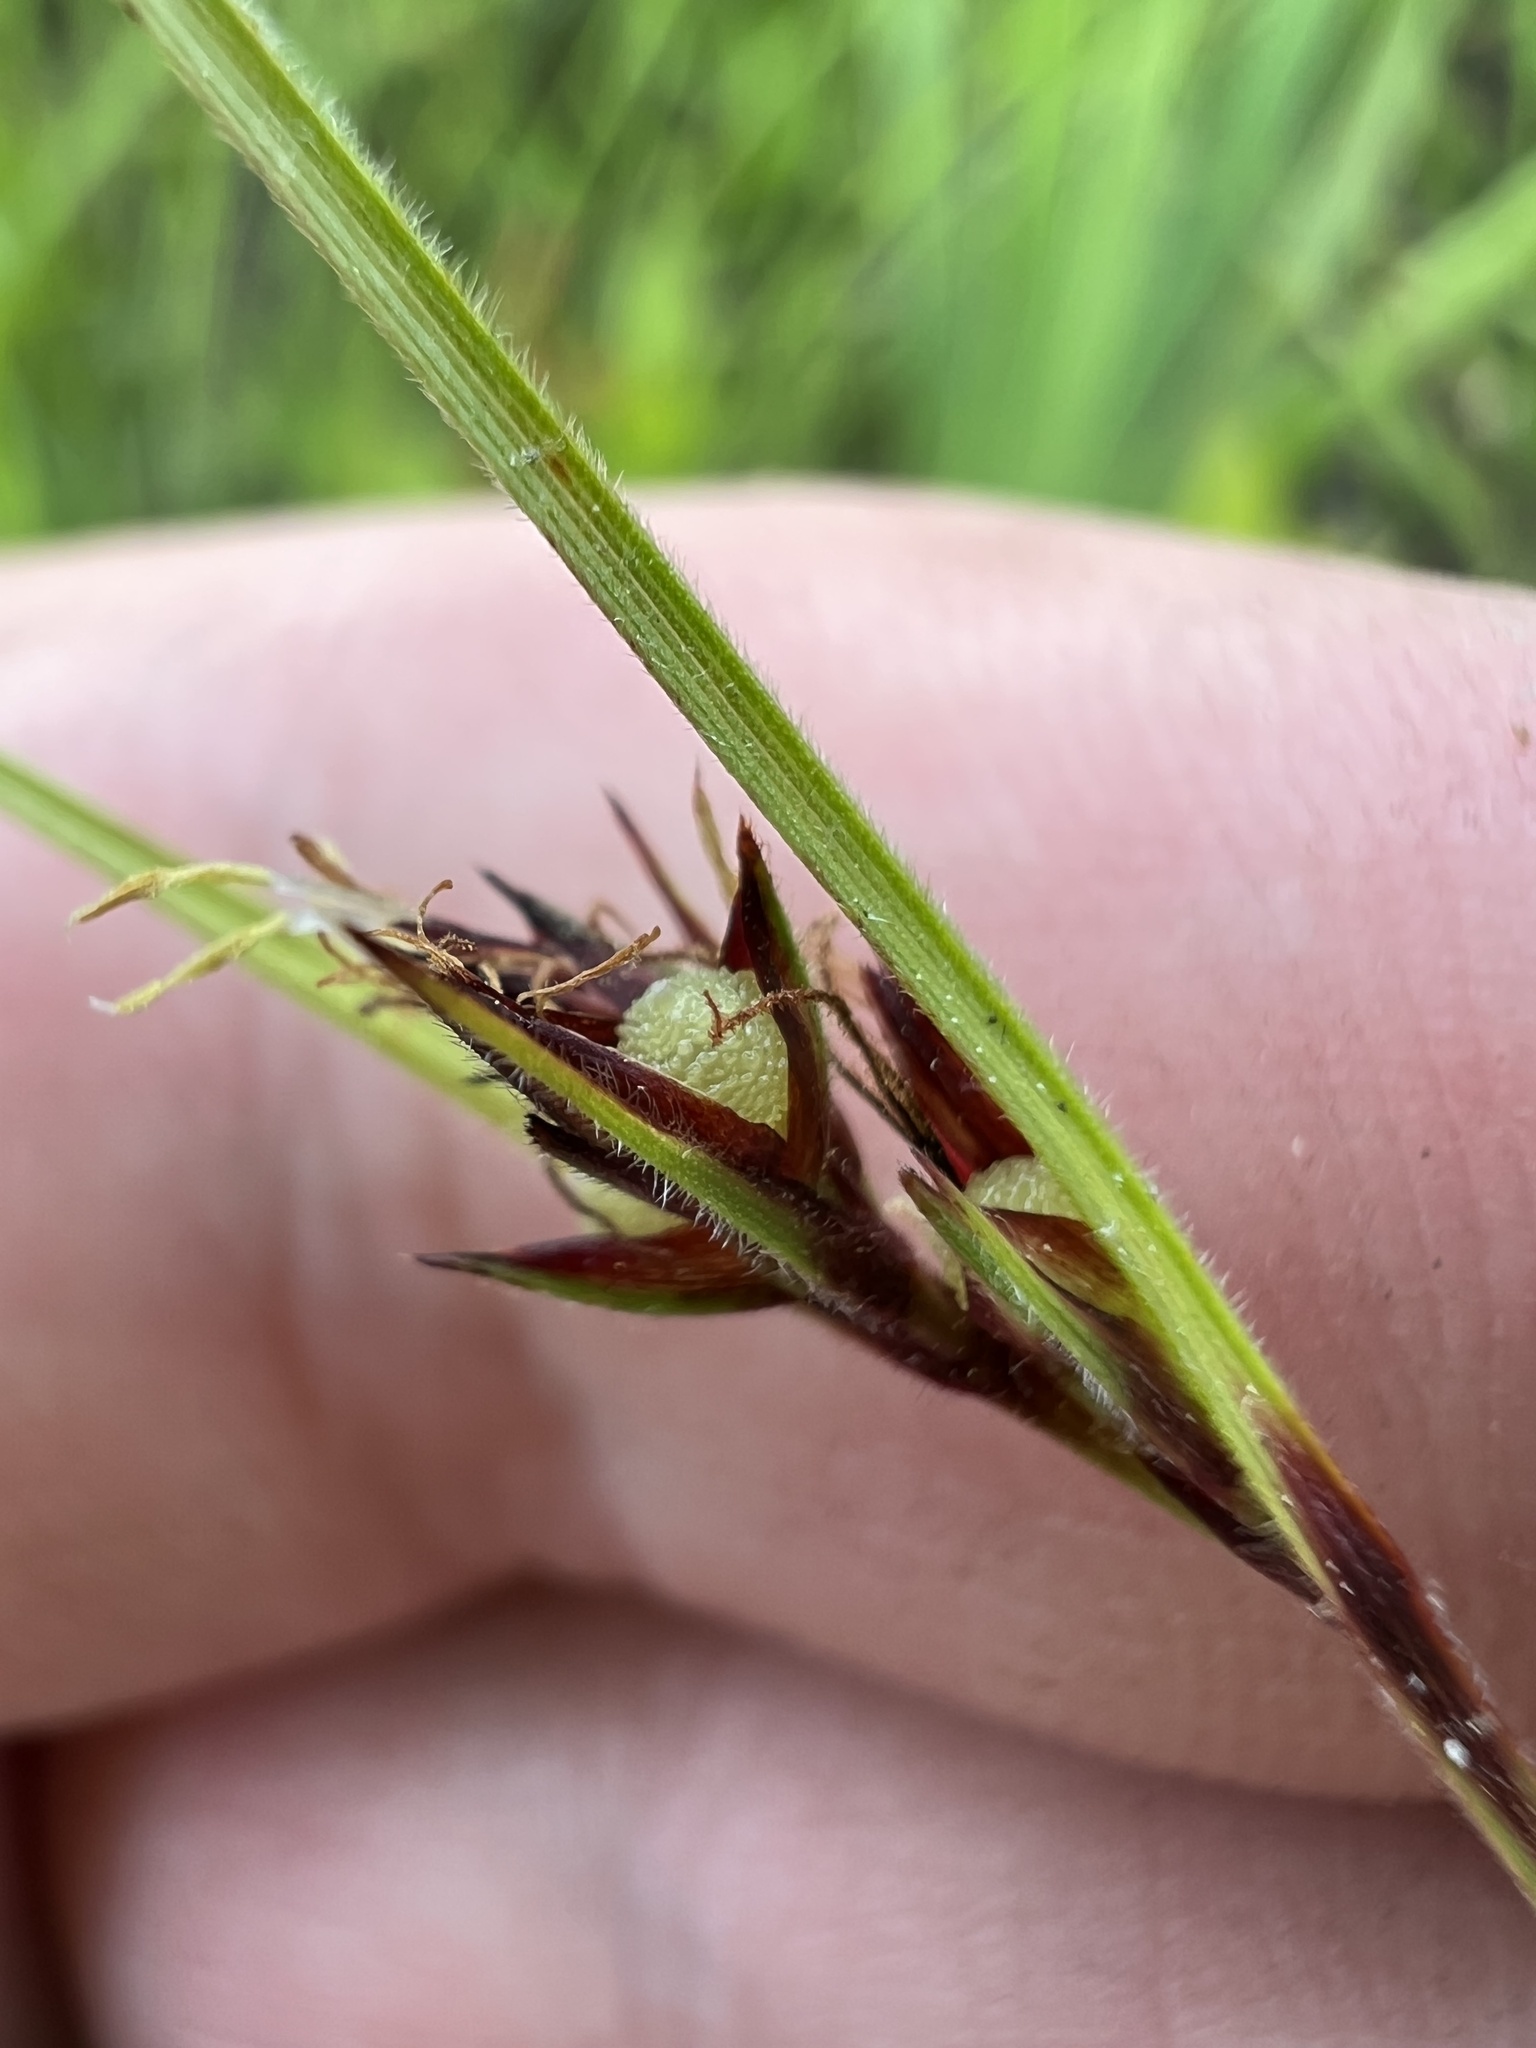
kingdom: Plantae
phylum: Tracheophyta
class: Liliopsida
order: Poales
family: Cyperaceae
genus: Scleria
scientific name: Scleria pauciflora
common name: Few-flowered nutrush
